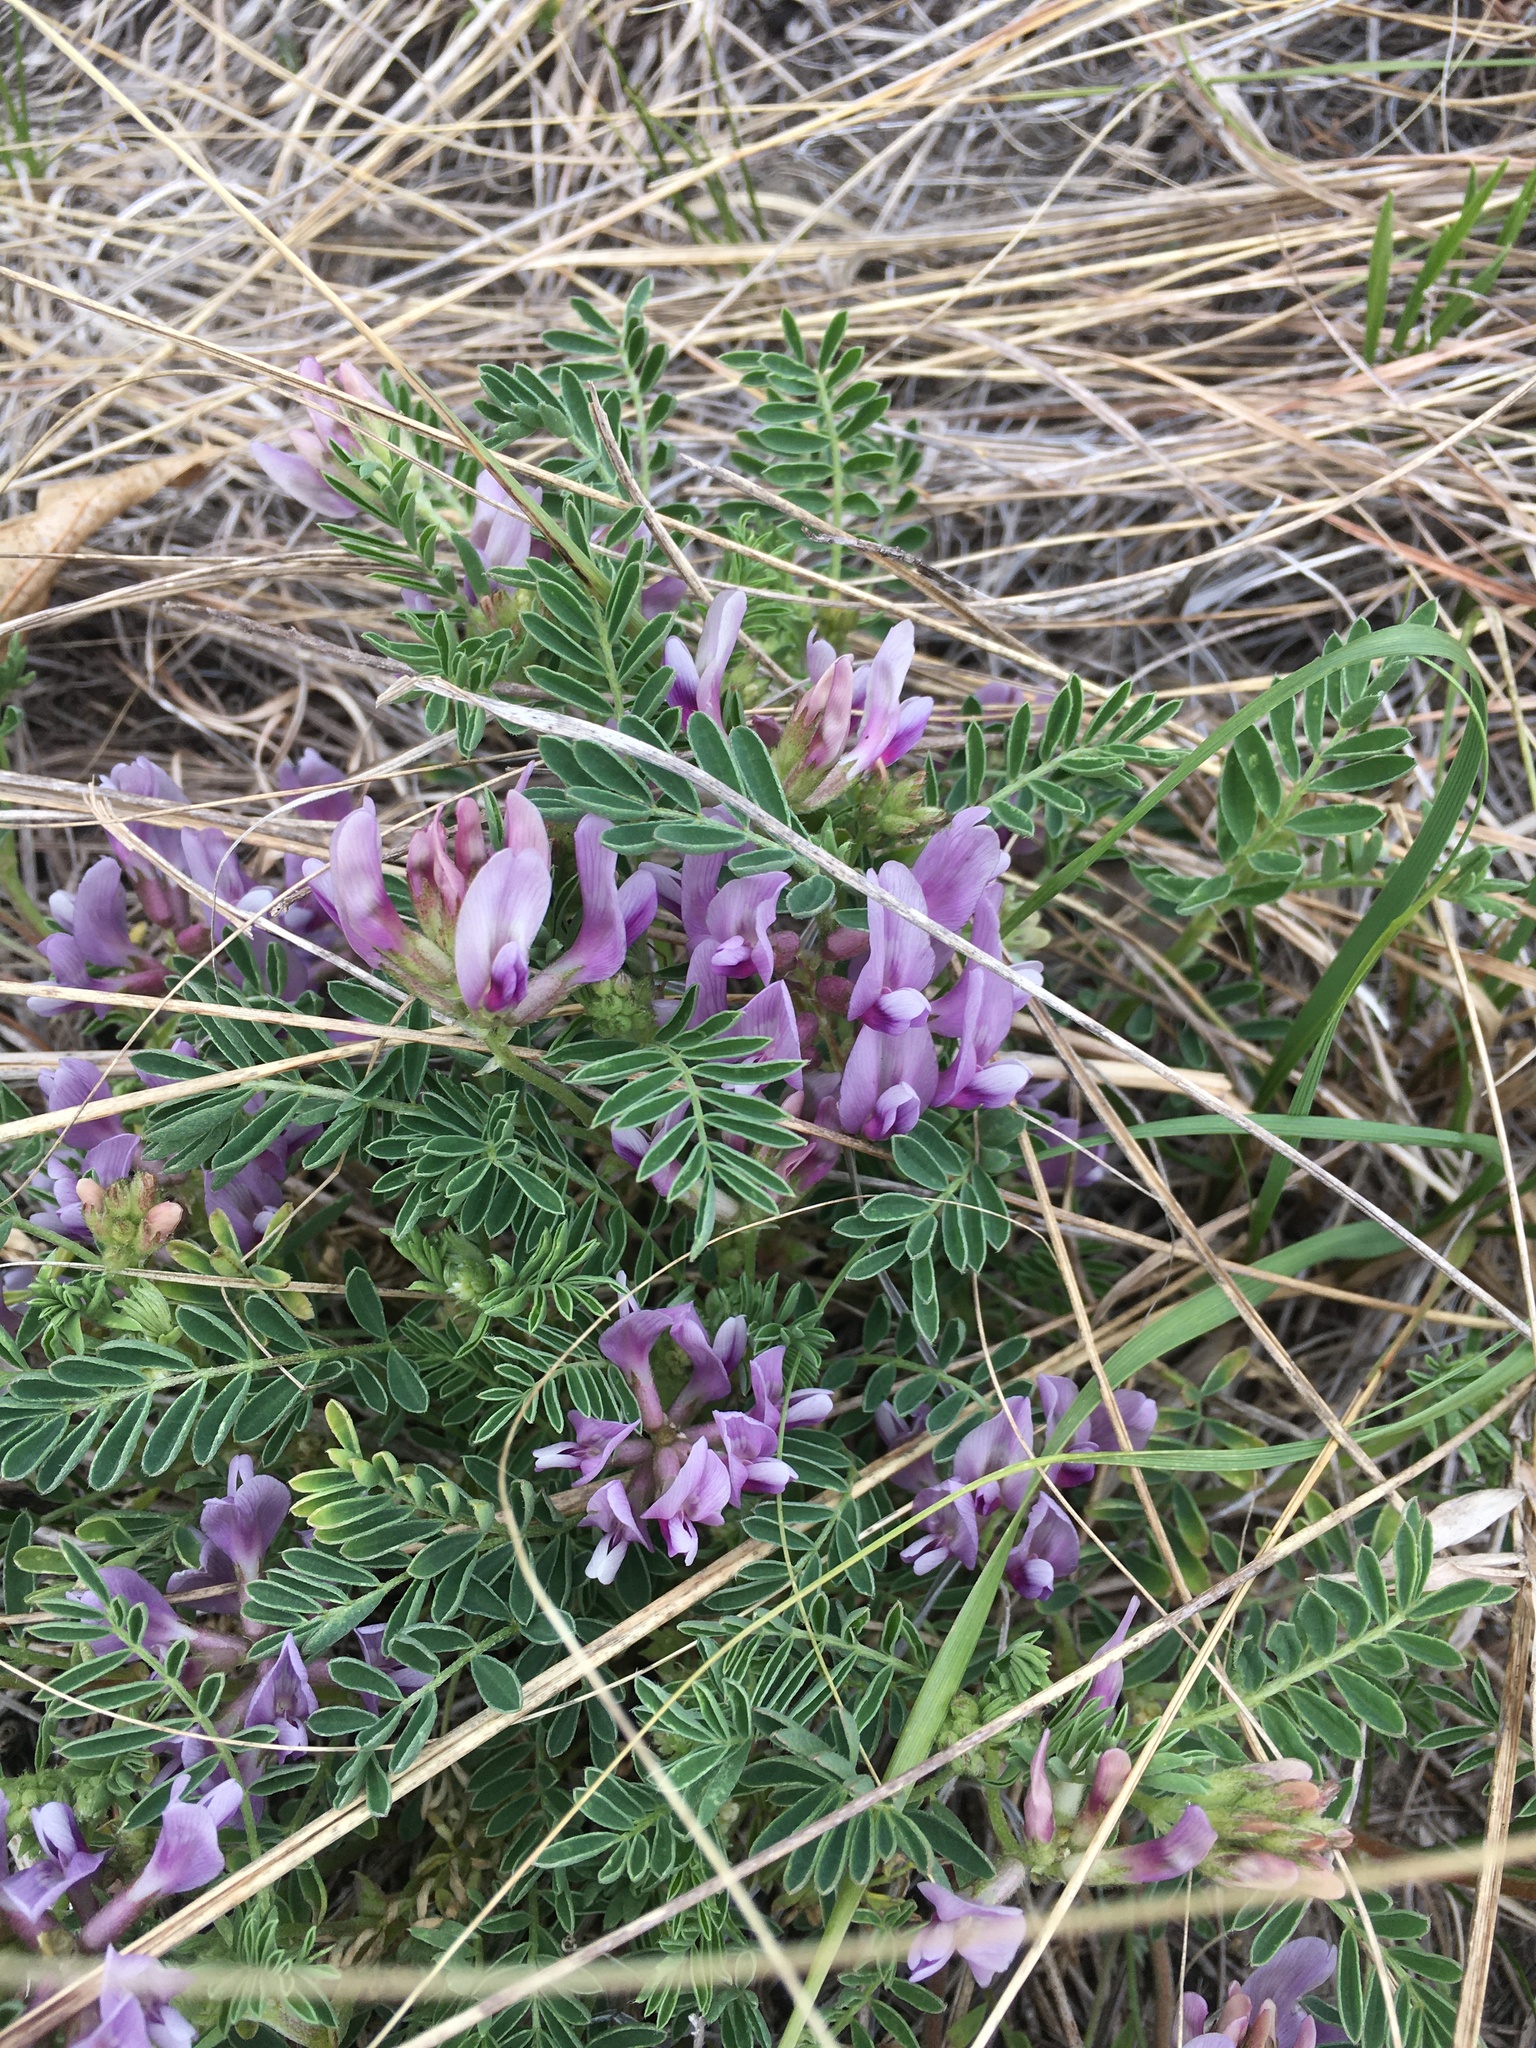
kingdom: Plantae
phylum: Tracheophyta
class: Magnoliopsida
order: Fabales
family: Fabaceae
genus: Astragalus
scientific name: Astragalus crassicarpus
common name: Ground-plum milk-vetch
